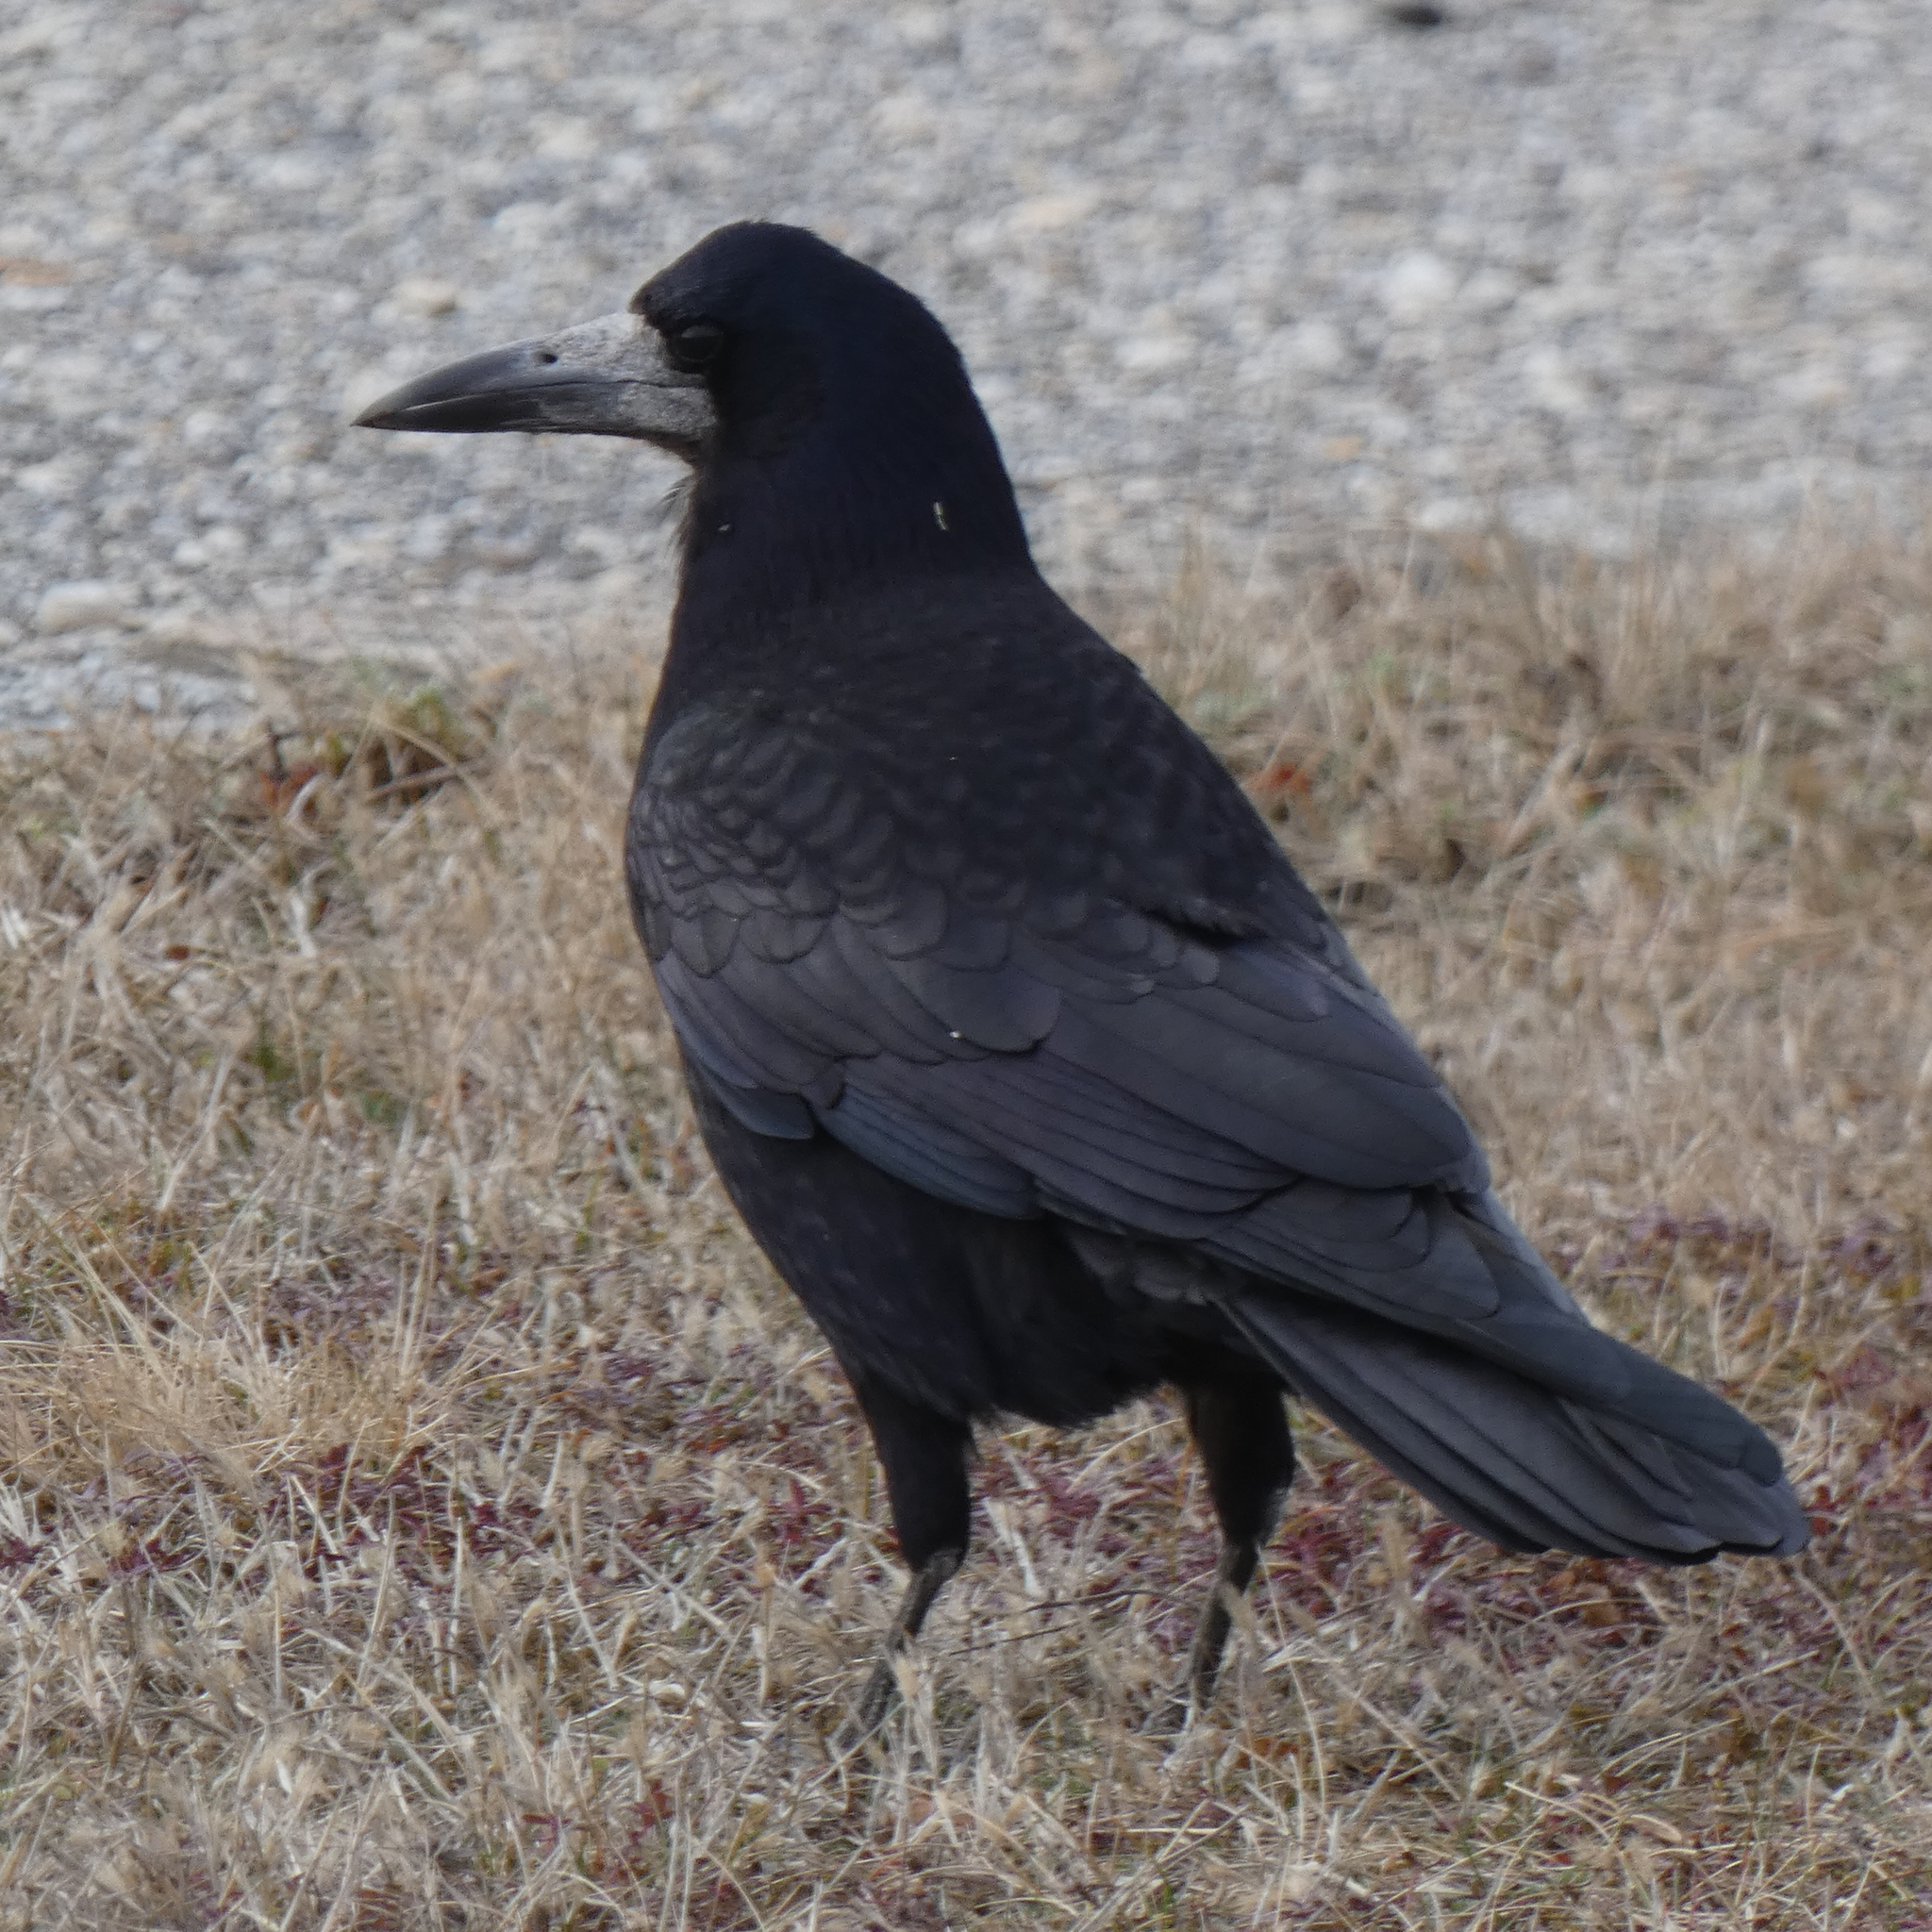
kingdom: Animalia
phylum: Chordata
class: Aves
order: Passeriformes
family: Corvidae
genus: Corvus
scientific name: Corvus frugilegus
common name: Rook
